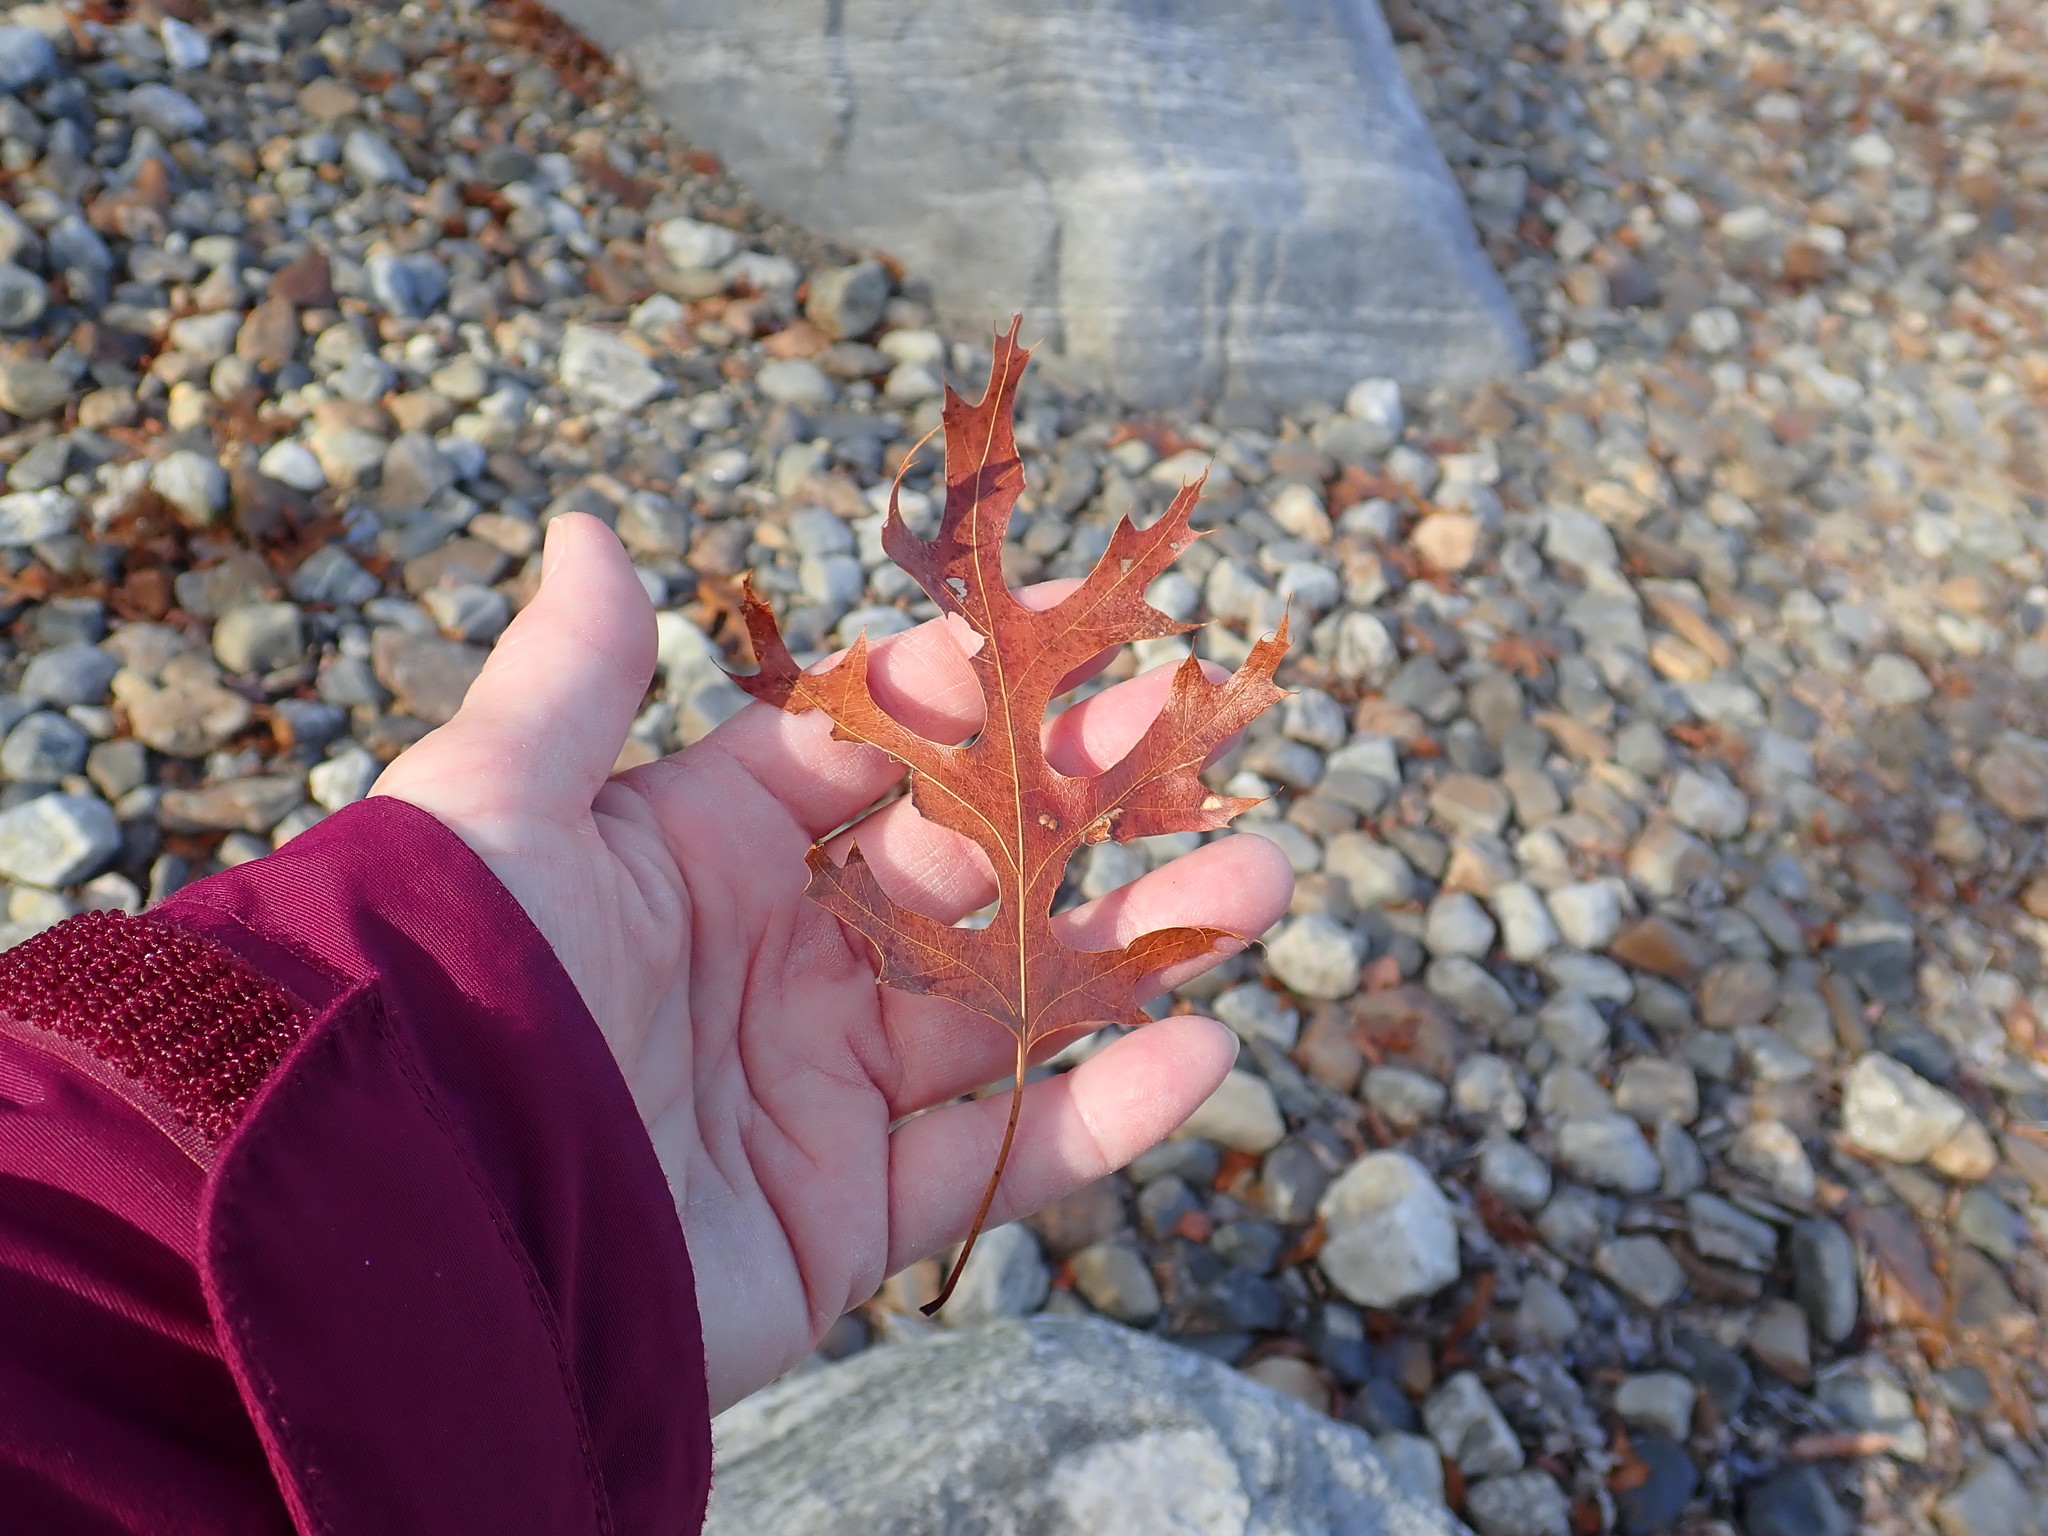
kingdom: Plantae
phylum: Tracheophyta
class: Magnoliopsida
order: Fagales
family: Fagaceae
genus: Quercus
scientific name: Quercus coccinea
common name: Scarlet oak
